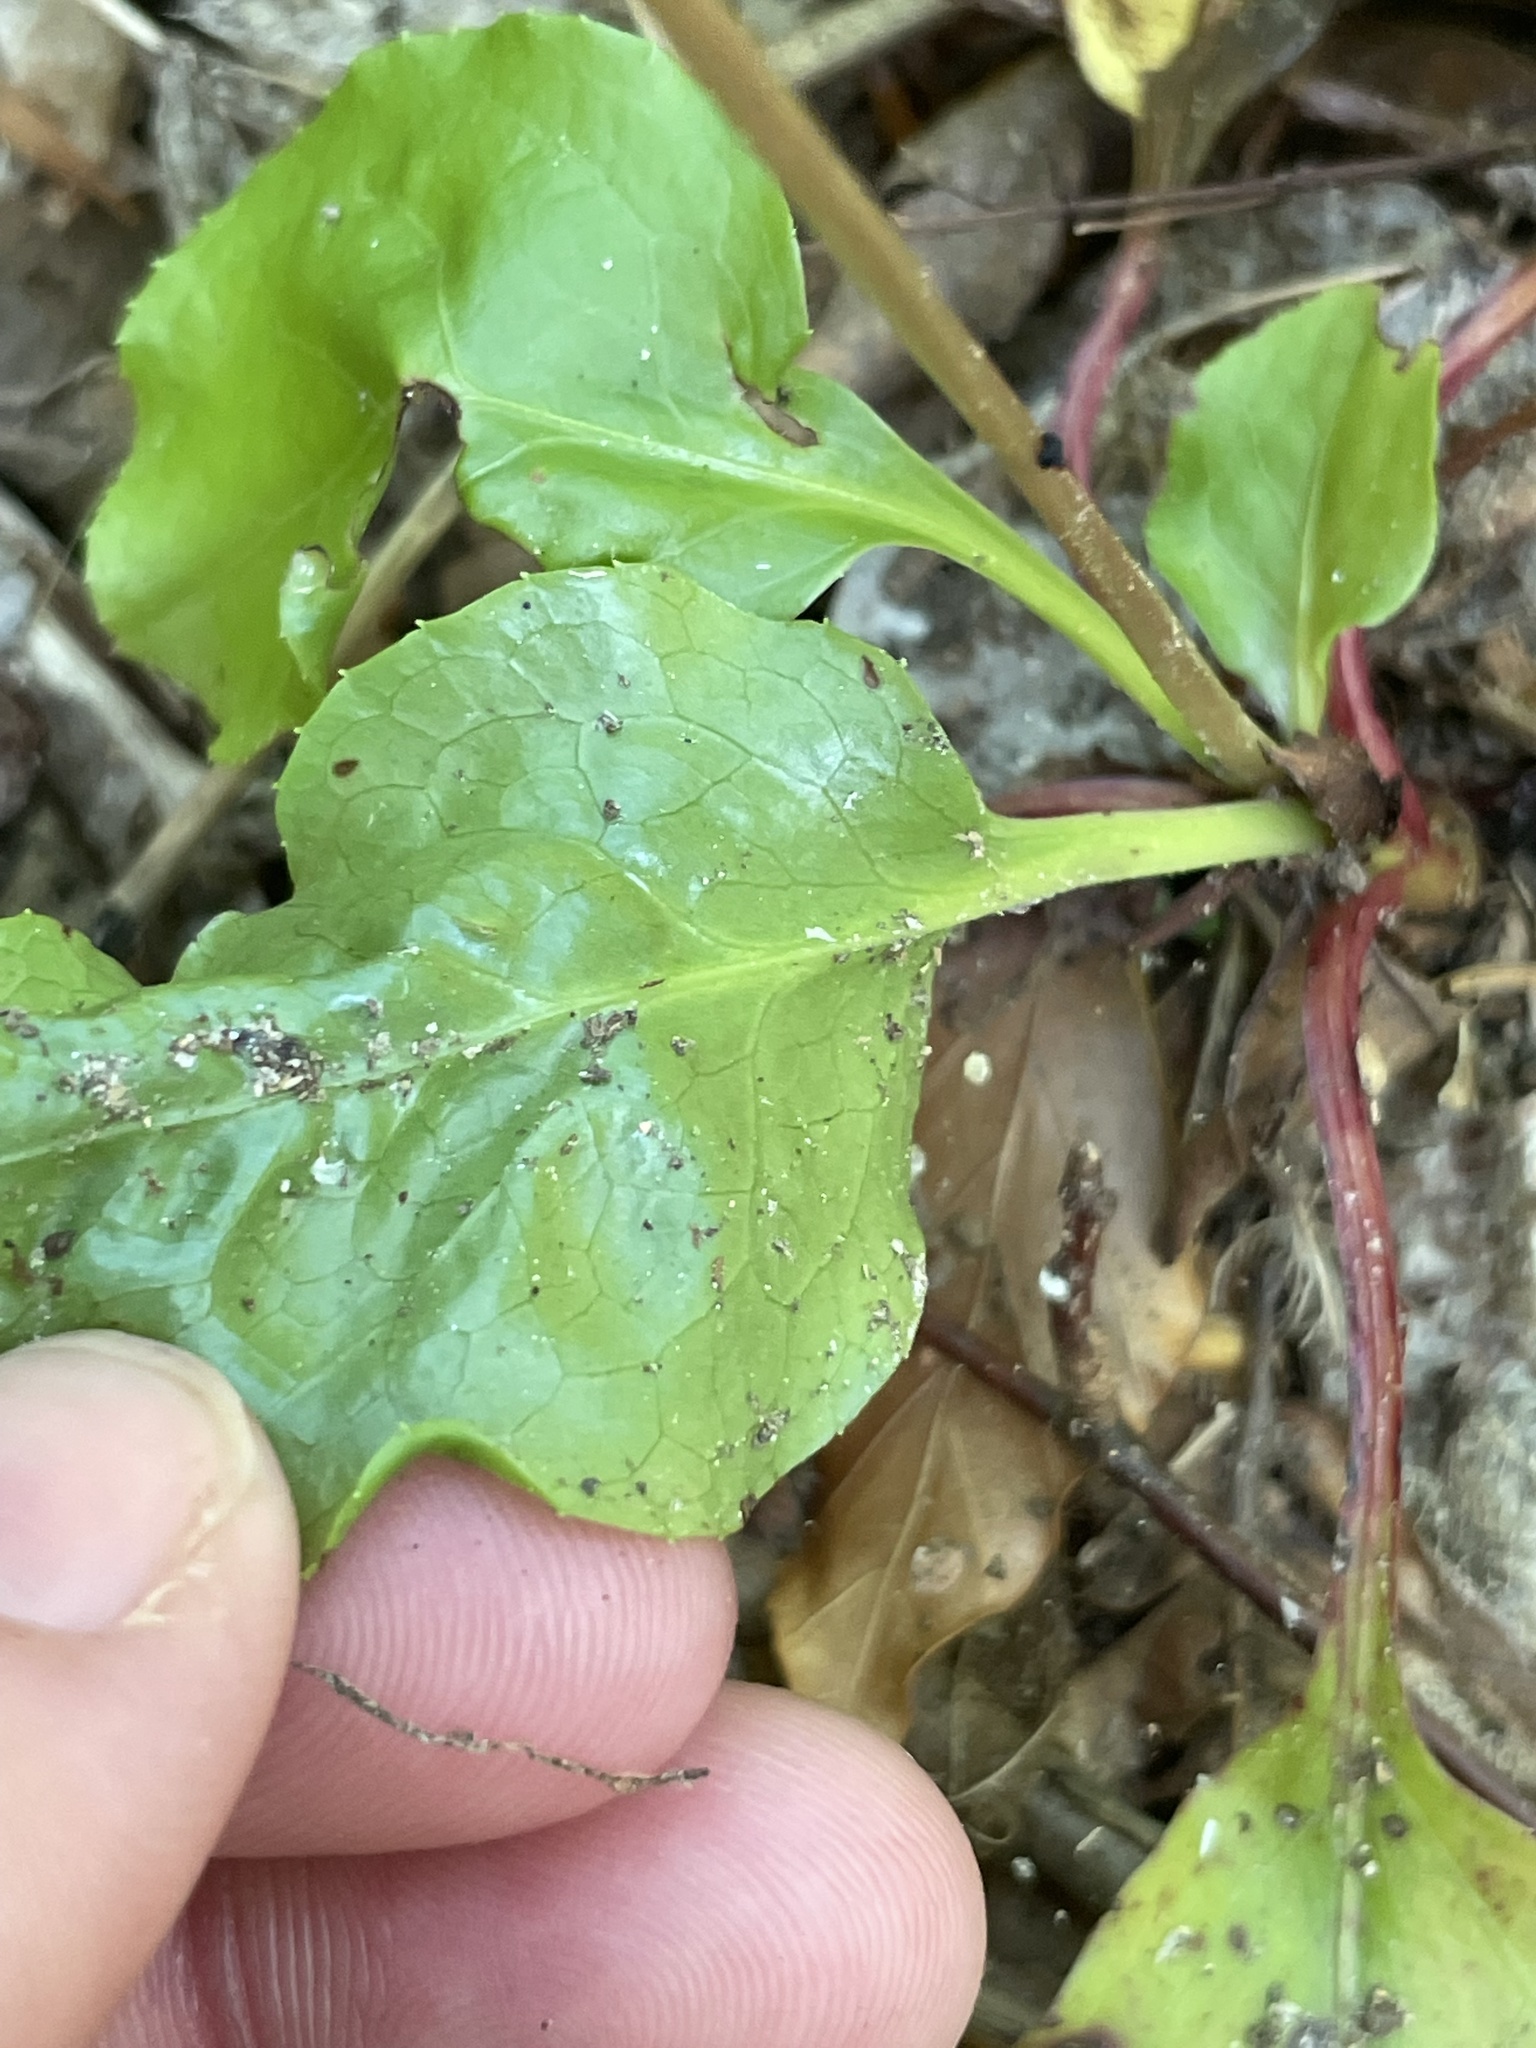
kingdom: Plantae
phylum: Tracheophyta
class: Magnoliopsida
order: Ericales
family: Ericaceae
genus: Pyrola
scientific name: Pyrola elliptica
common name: Shinleaf
